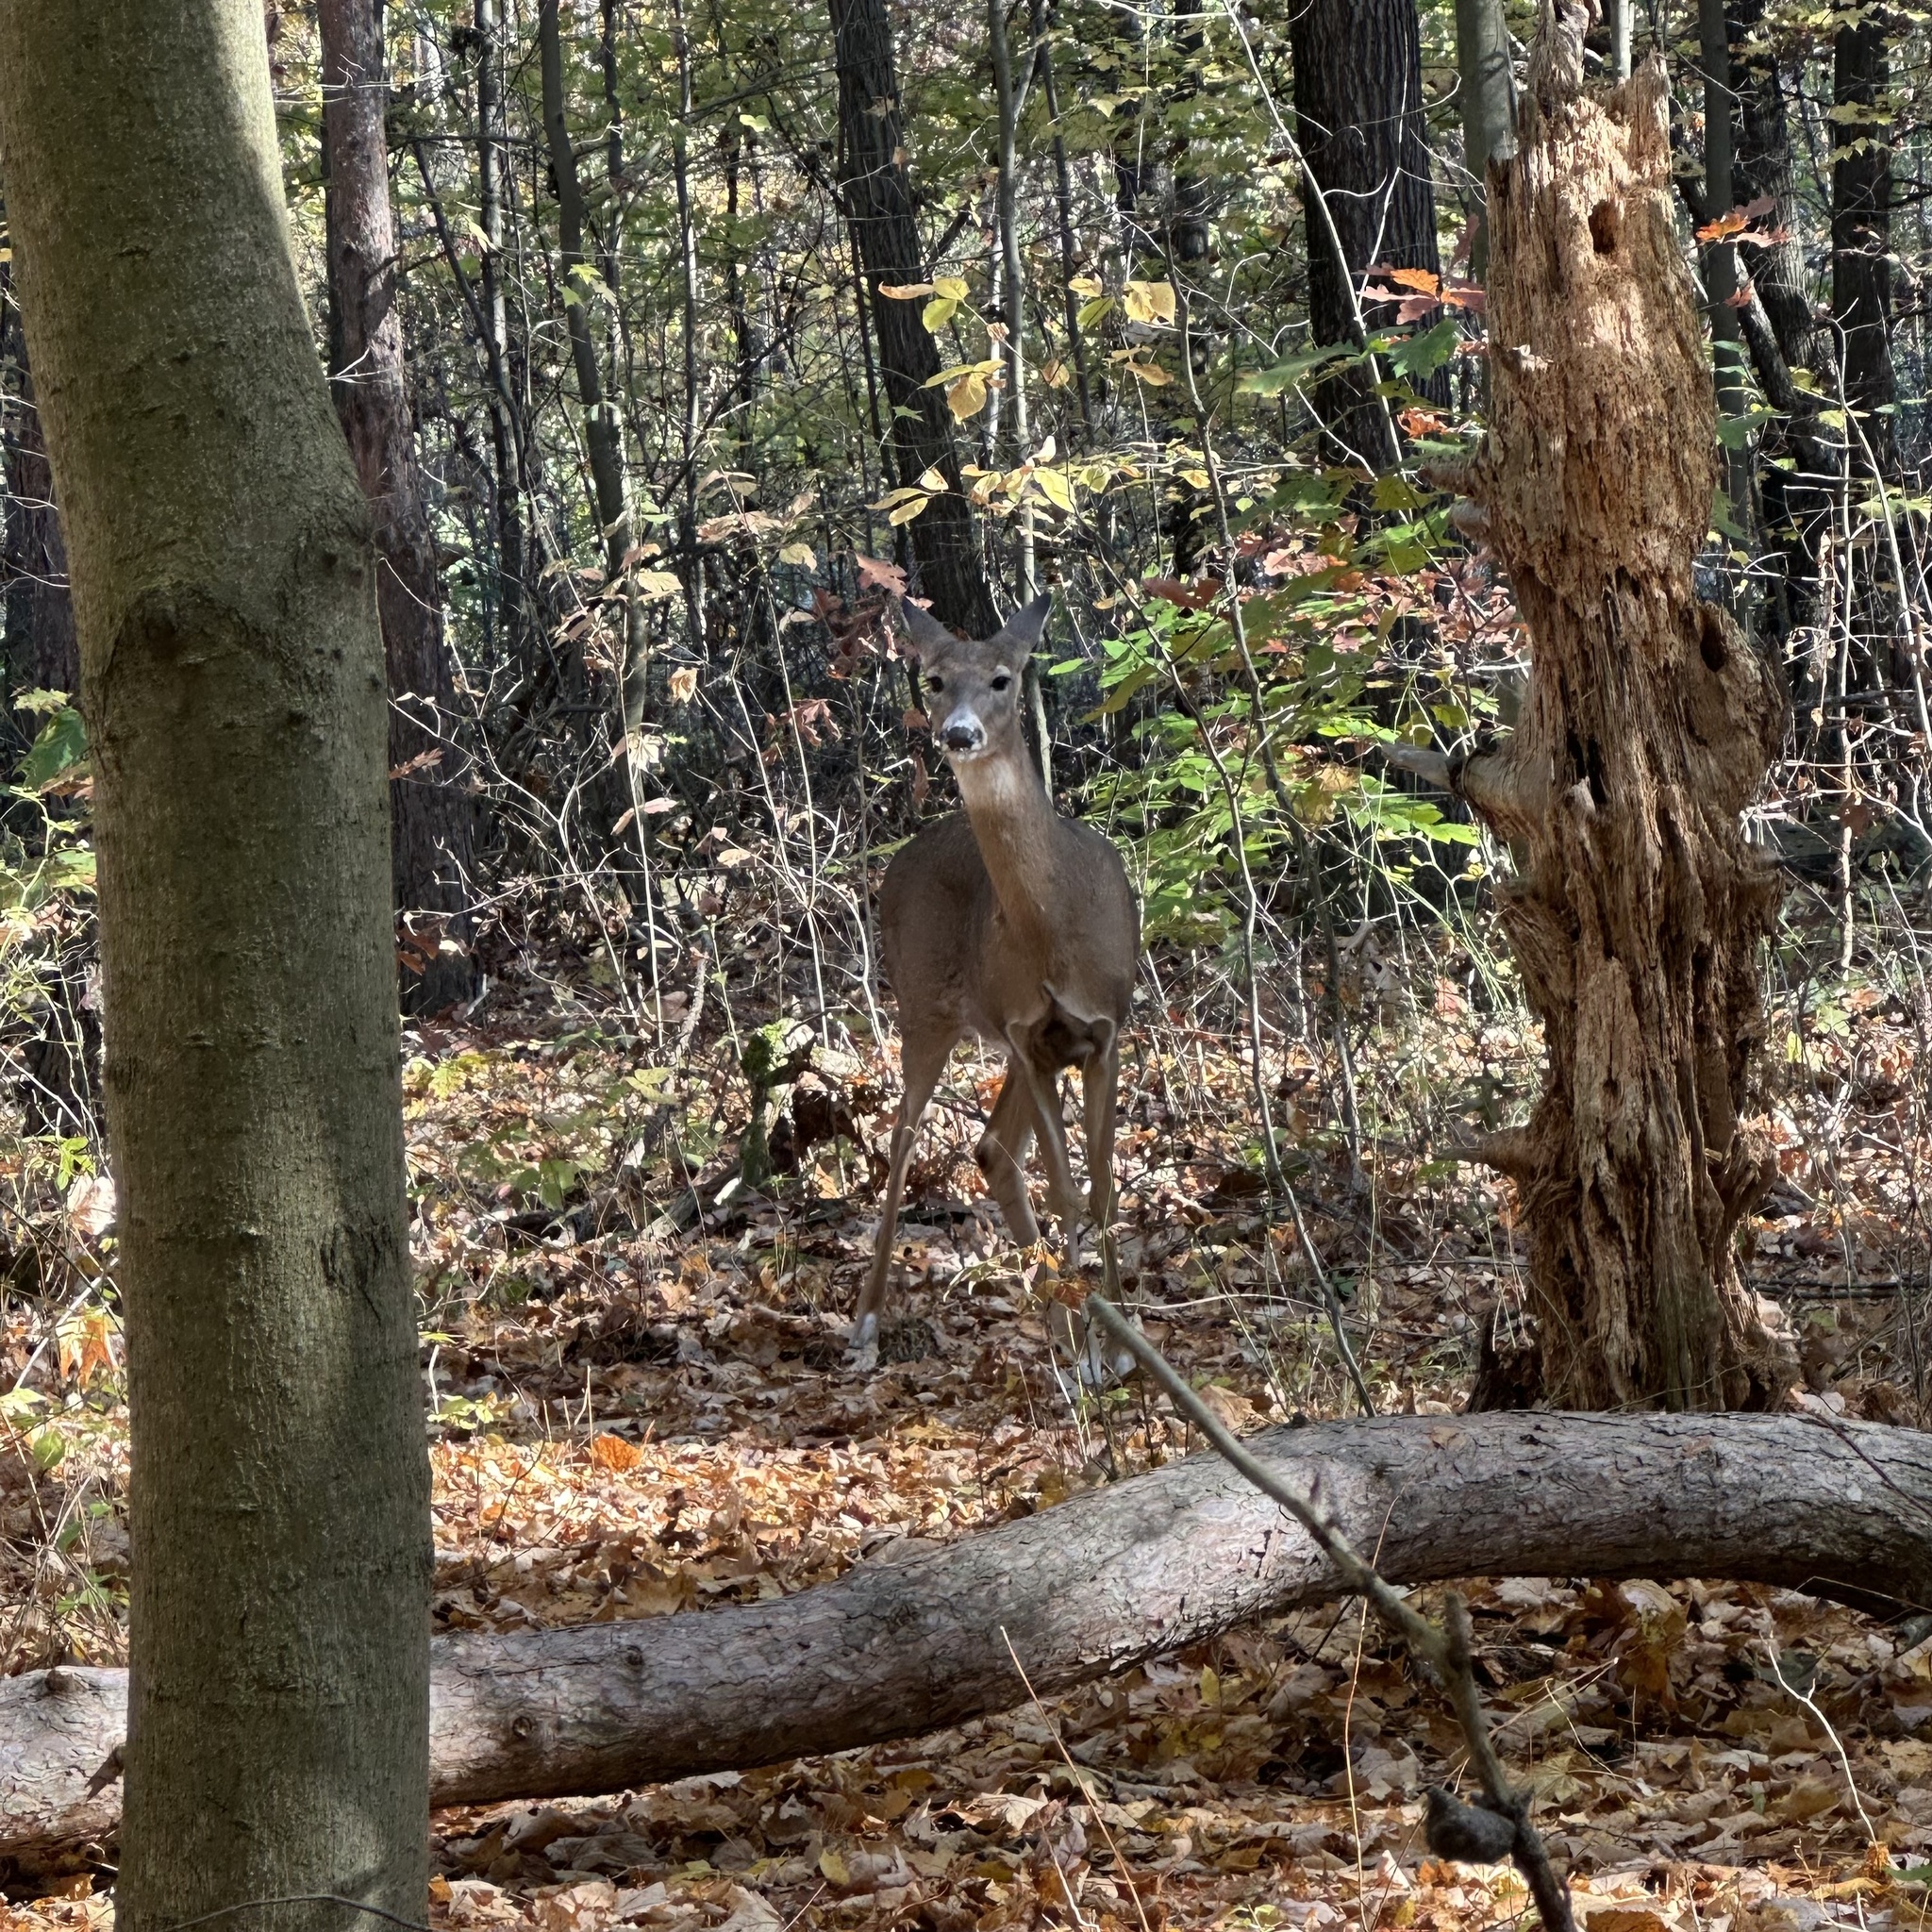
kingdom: Animalia
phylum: Chordata
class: Mammalia
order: Artiodactyla
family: Cervidae
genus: Odocoileus
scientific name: Odocoileus virginianus
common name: White-tailed deer
